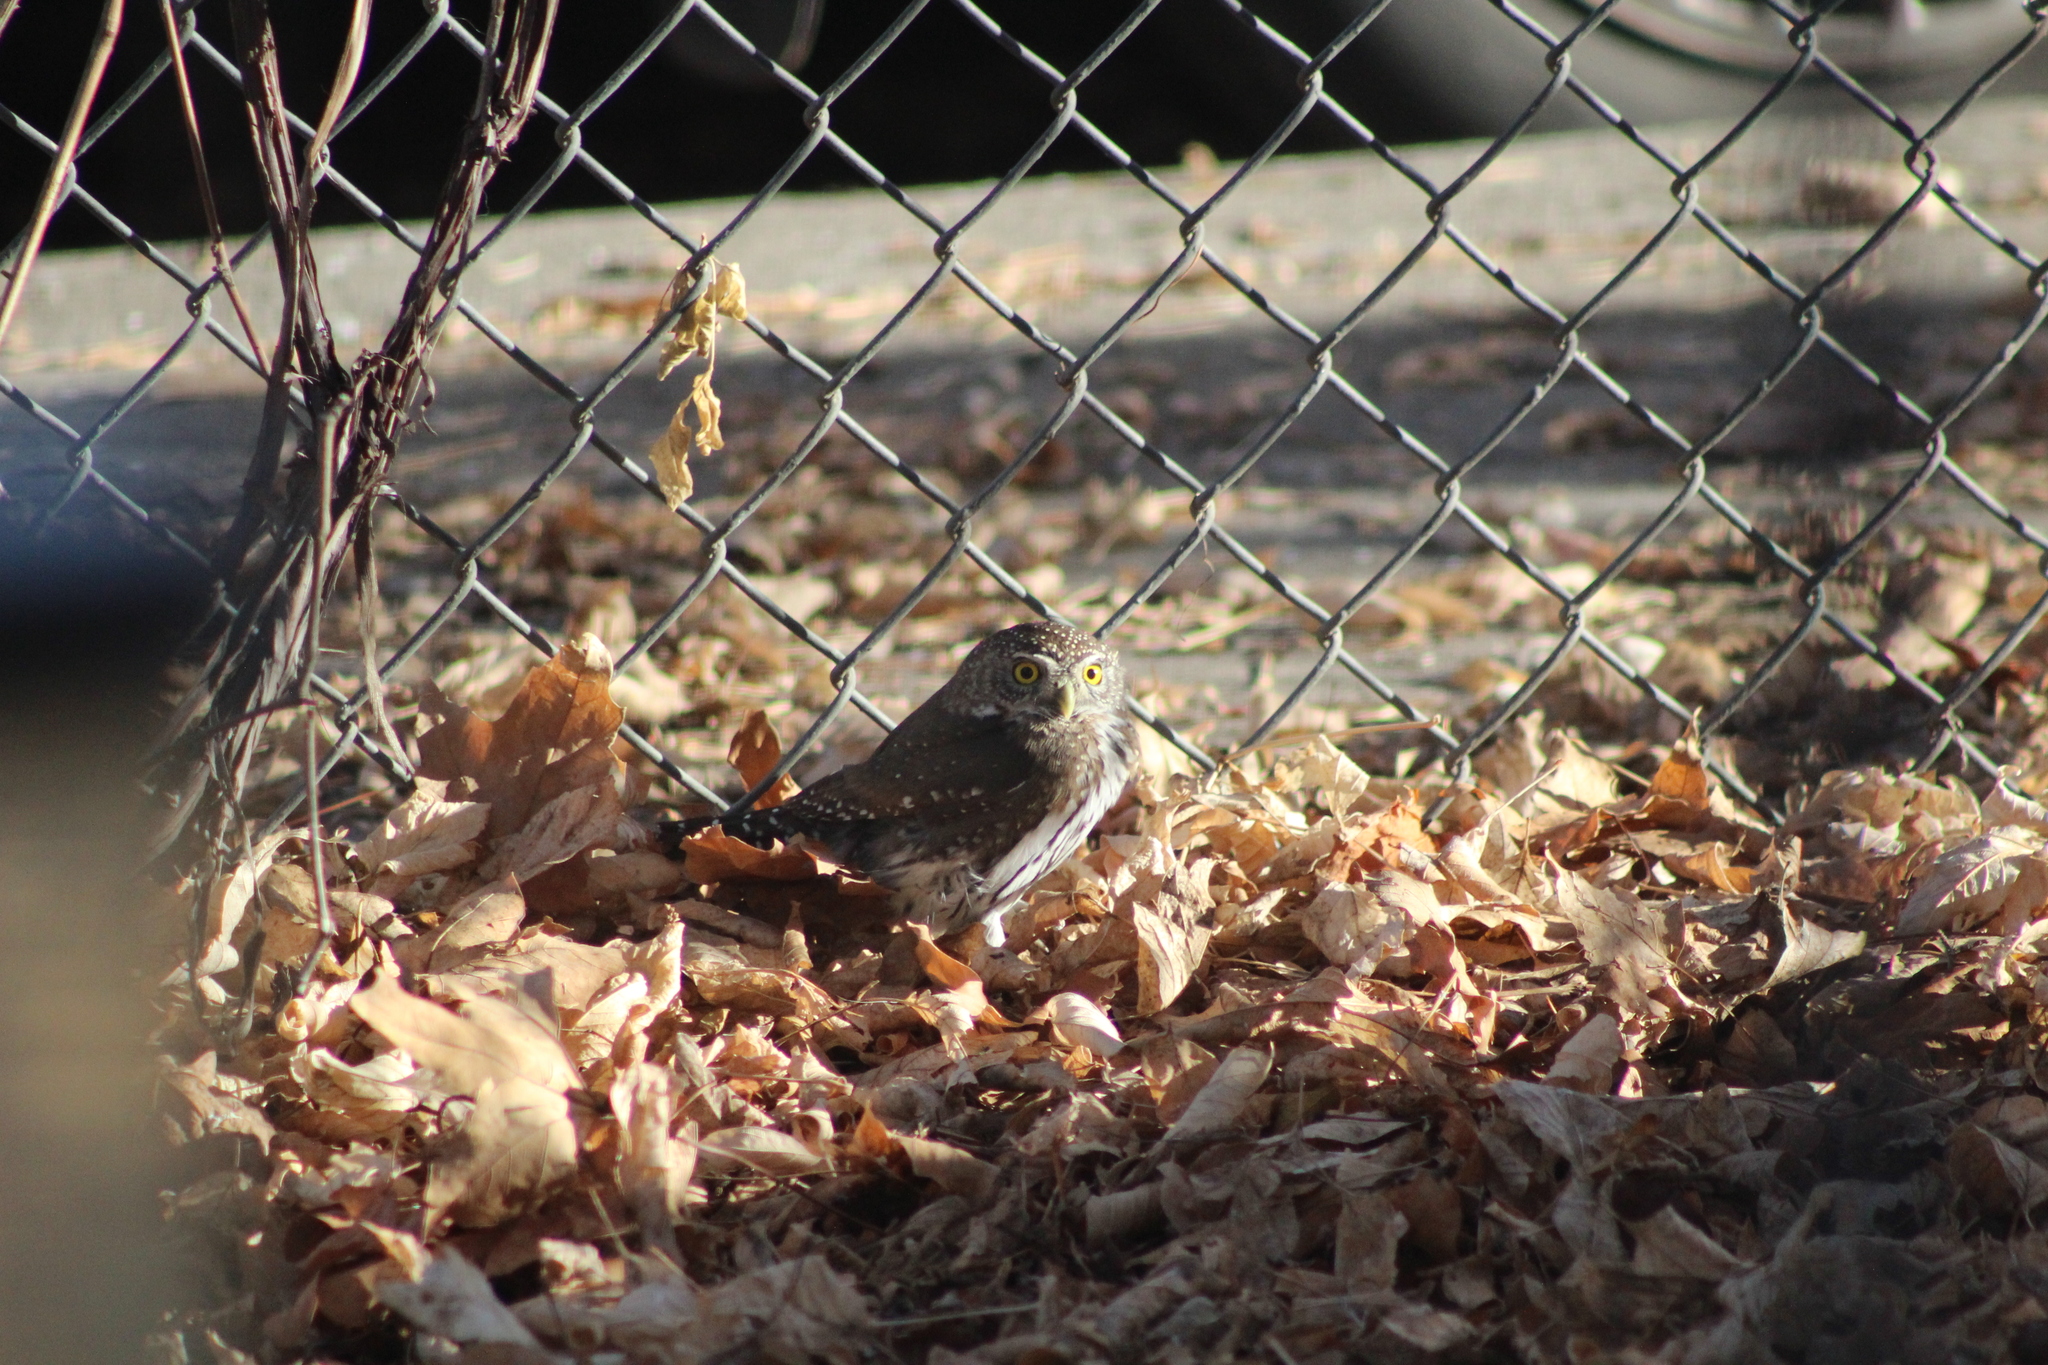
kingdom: Animalia
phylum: Chordata
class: Aves
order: Strigiformes
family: Strigidae
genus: Glaucidium
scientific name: Glaucidium gnoma
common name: Northern pygmy-owl
